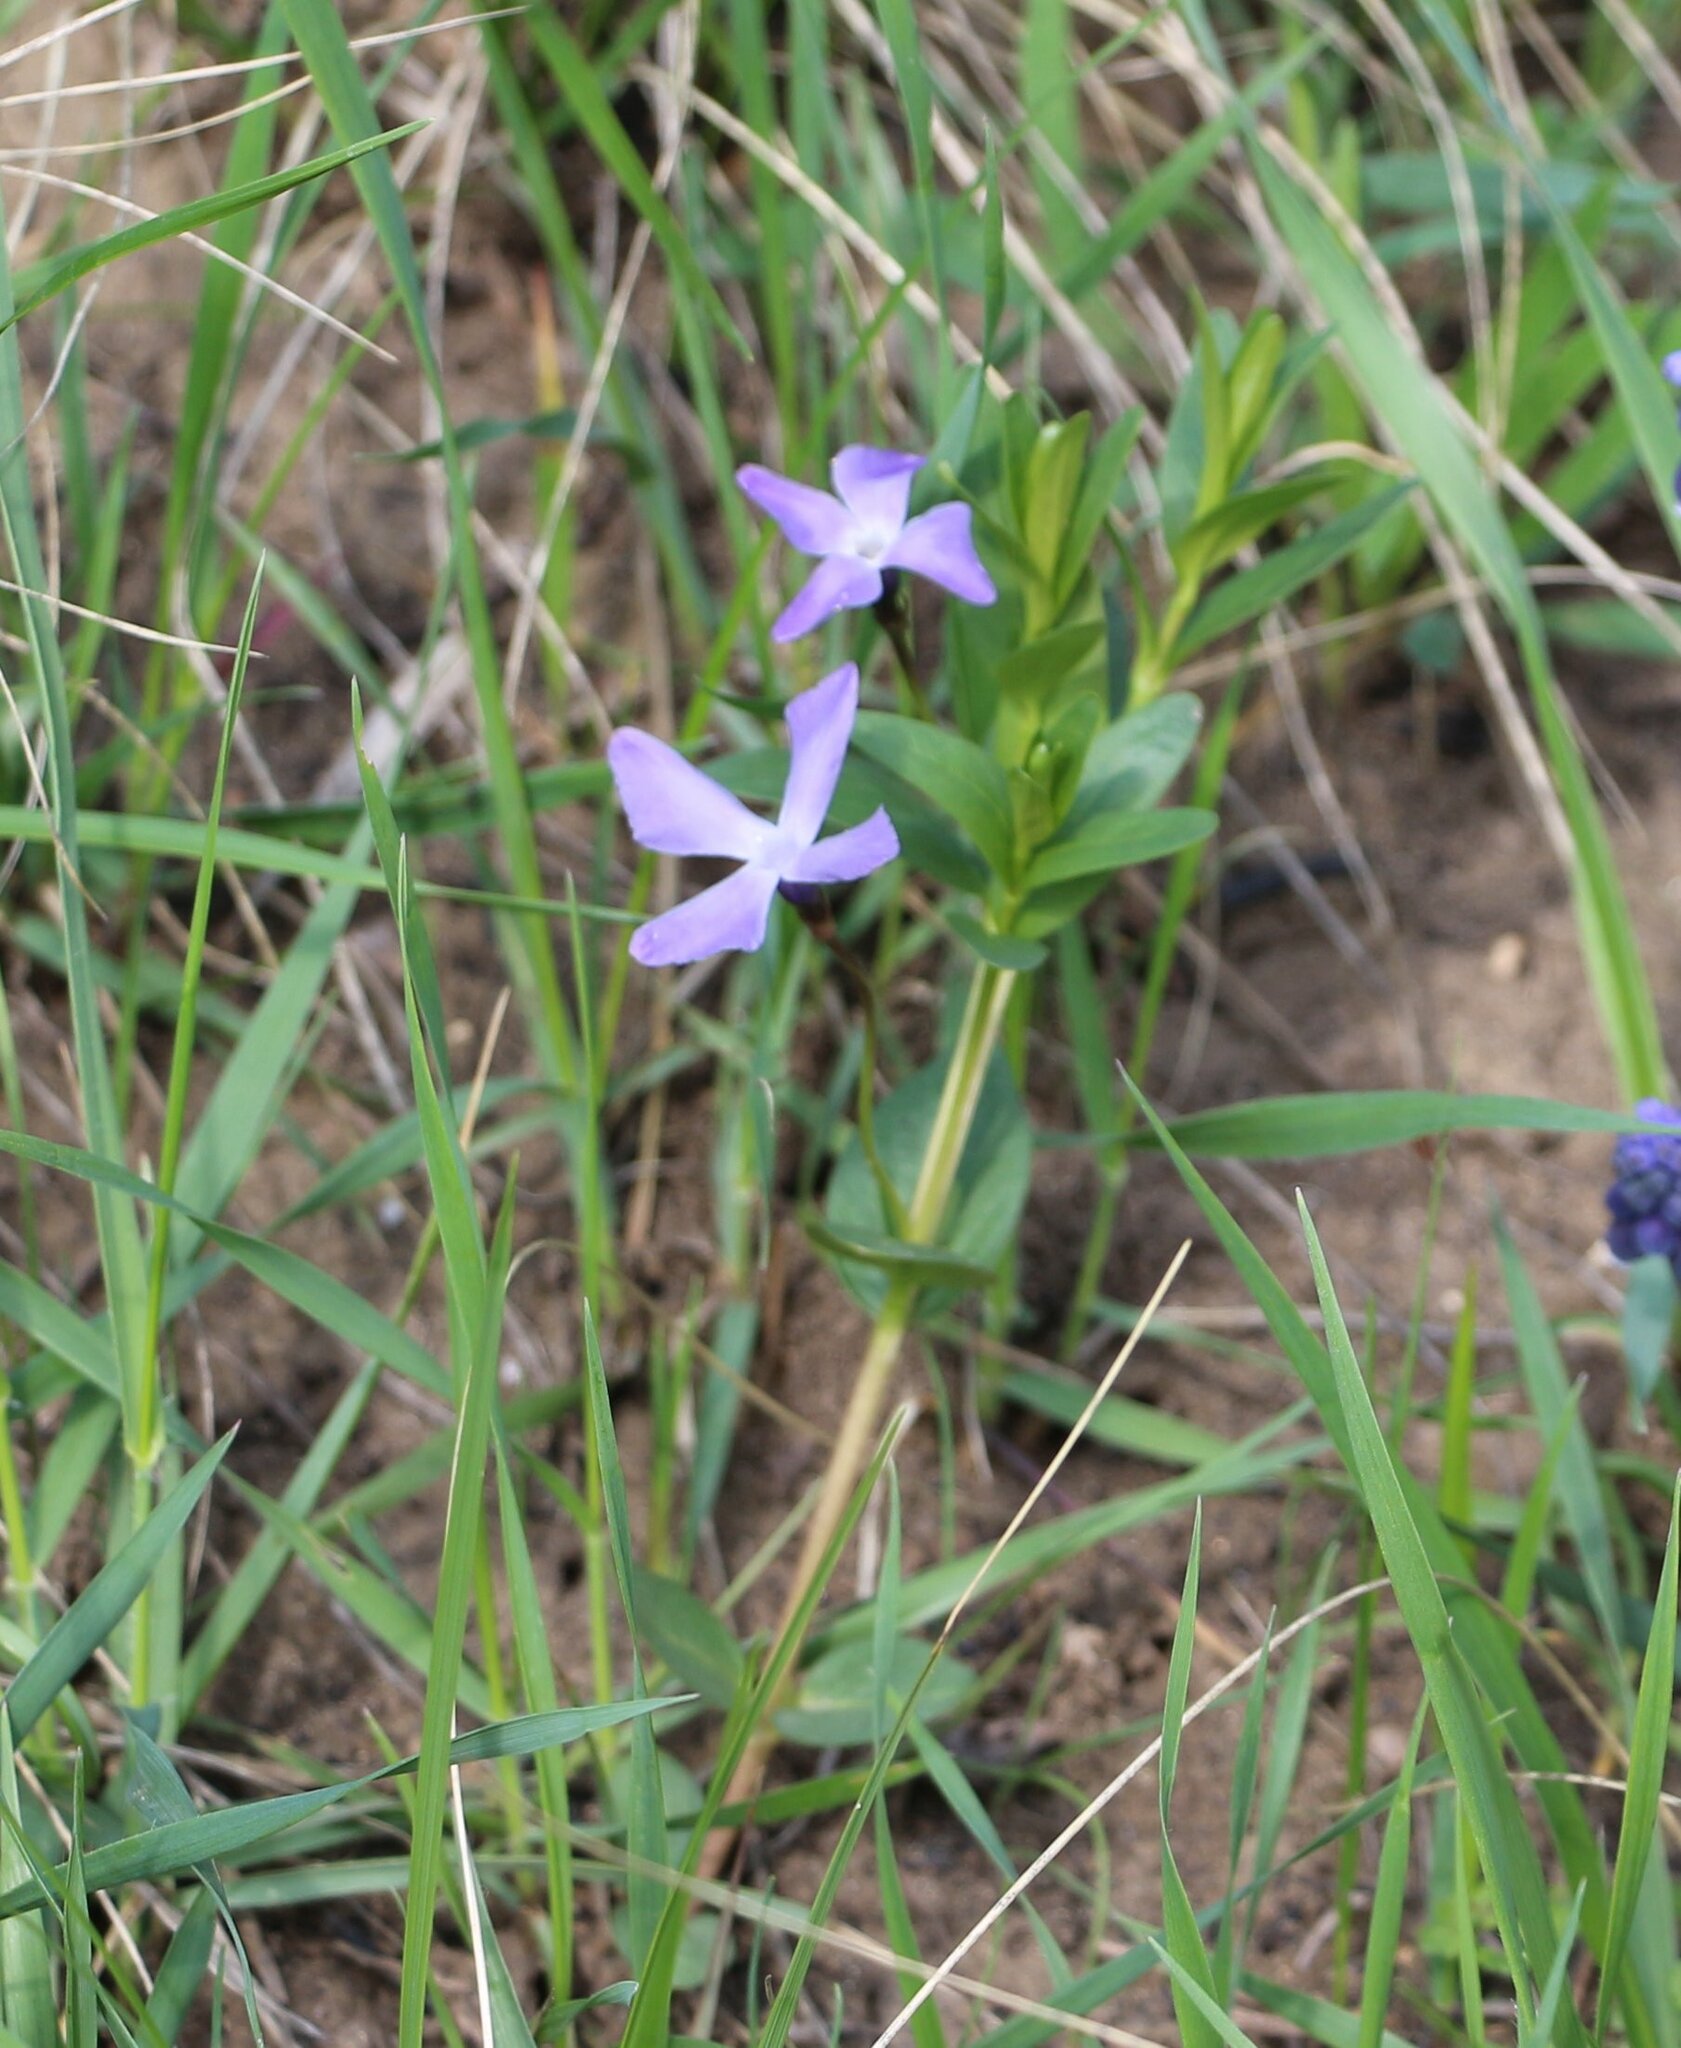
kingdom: Plantae
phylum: Tracheophyta
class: Magnoliopsida
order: Gentianales
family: Apocynaceae
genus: Vinca
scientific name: Vinca herbacea
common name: Herbaceous periwinkle
